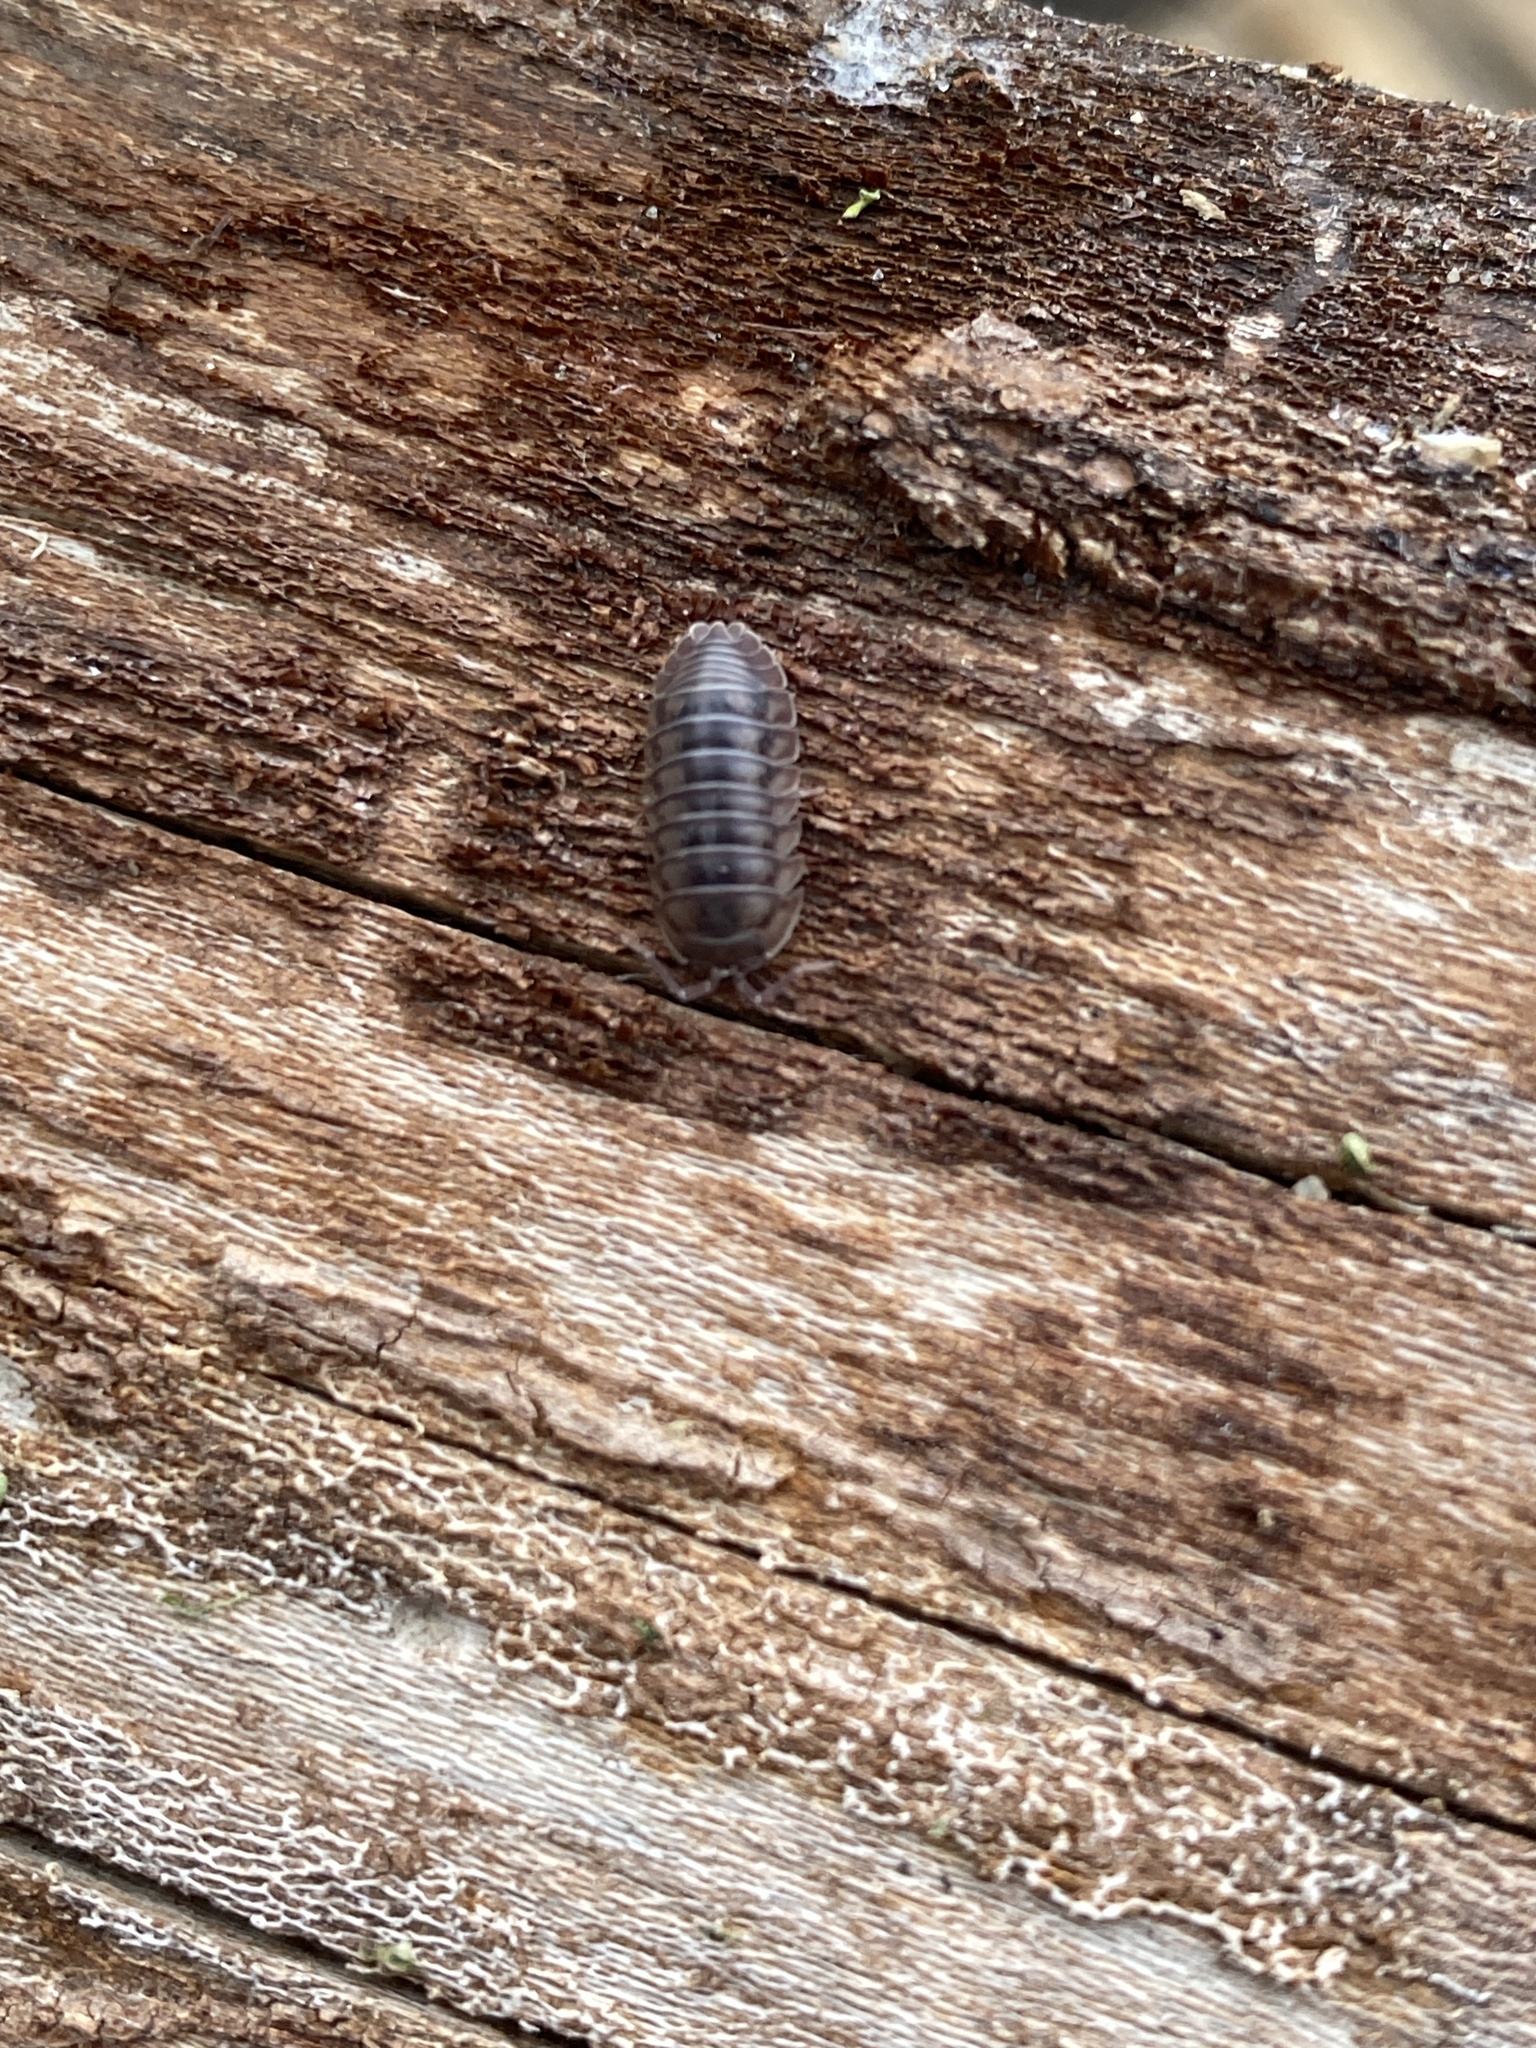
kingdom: Animalia
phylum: Arthropoda
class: Malacostraca
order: Isopoda
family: Armadillidiidae
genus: Armadillidium
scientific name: Armadillidium nasatum
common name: Isopod
